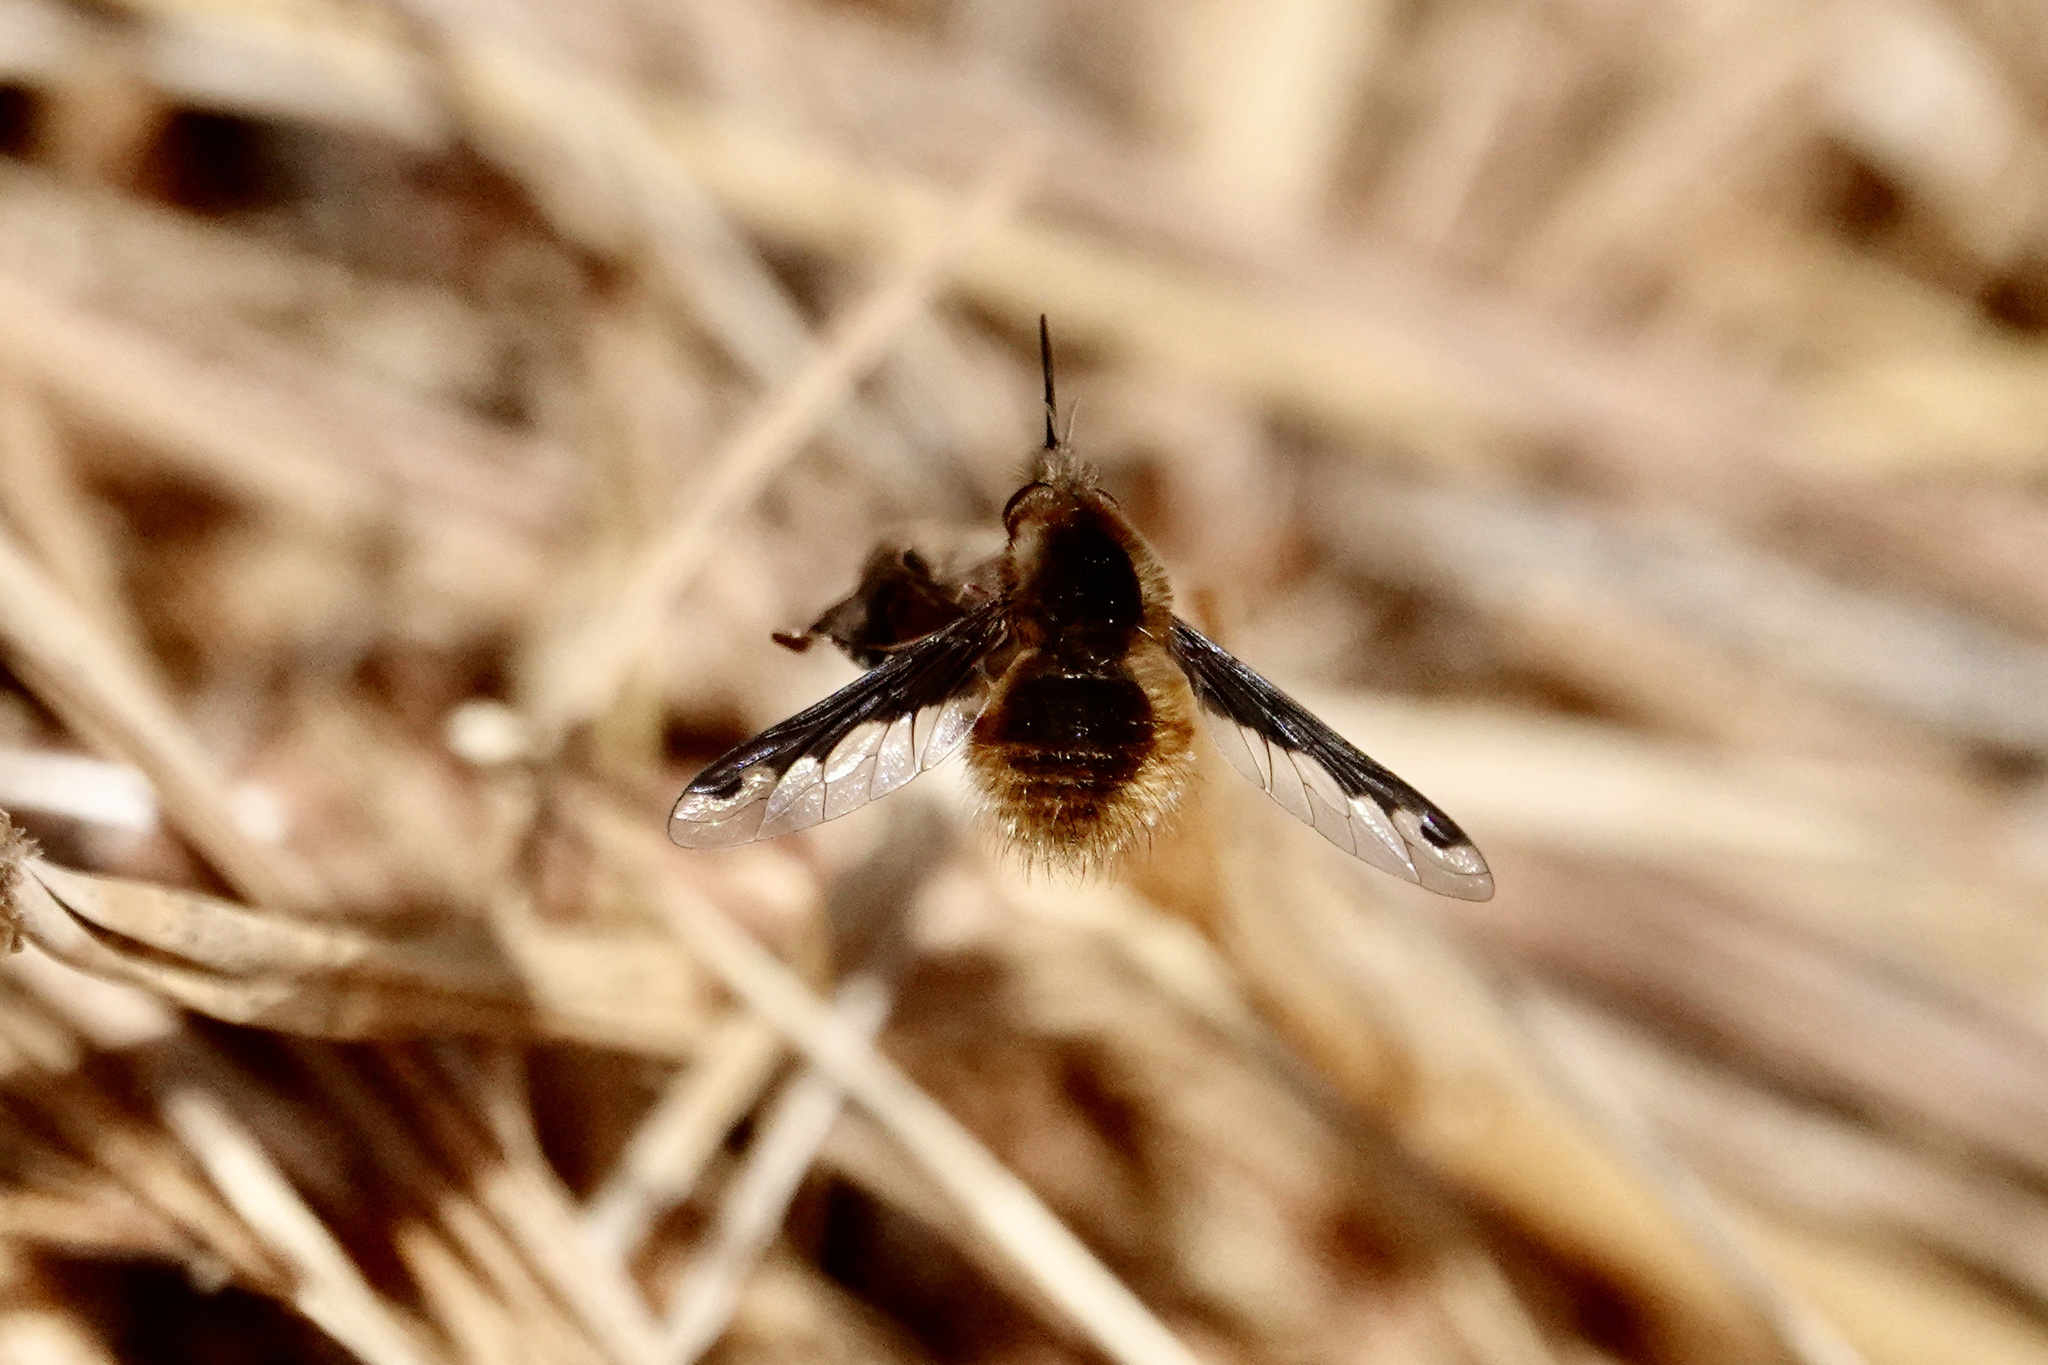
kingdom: Animalia
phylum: Arthropoda
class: Insecta
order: Diptera
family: Bombyliidae
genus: Bombylius
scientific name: Bombylius major
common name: Bee fly
